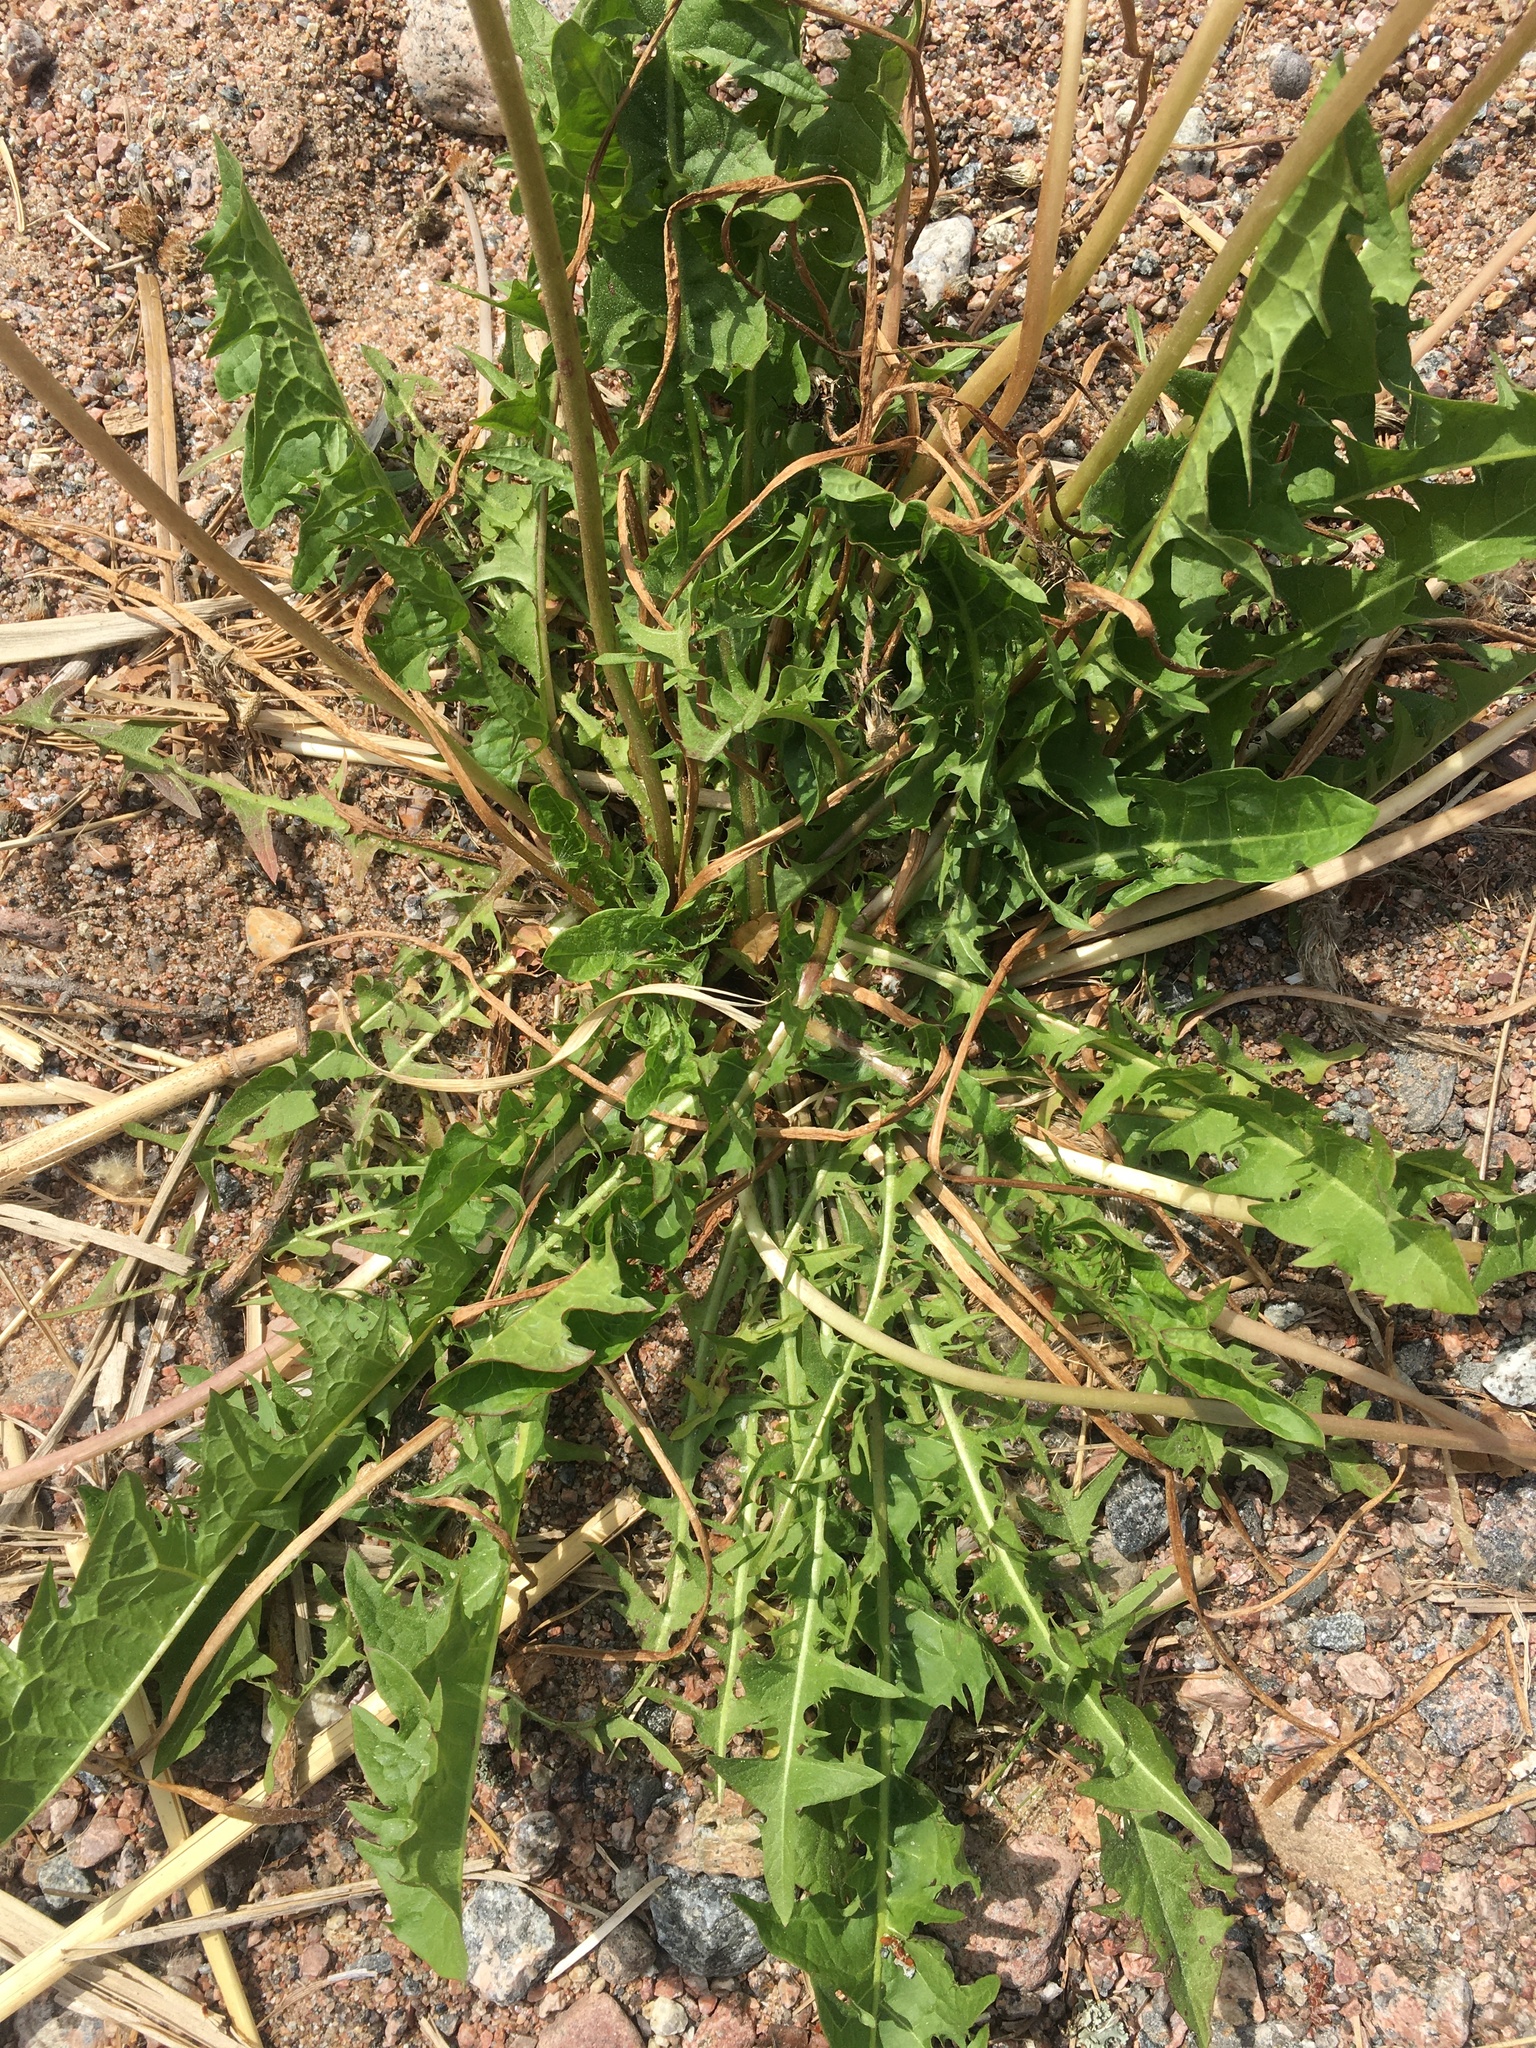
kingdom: Plantae
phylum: Tracheophyta
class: Magnoliopsida
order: Asterales
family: Asteraceae
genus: Taraxacum
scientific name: Taraxacum officinale
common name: Common dandelion
